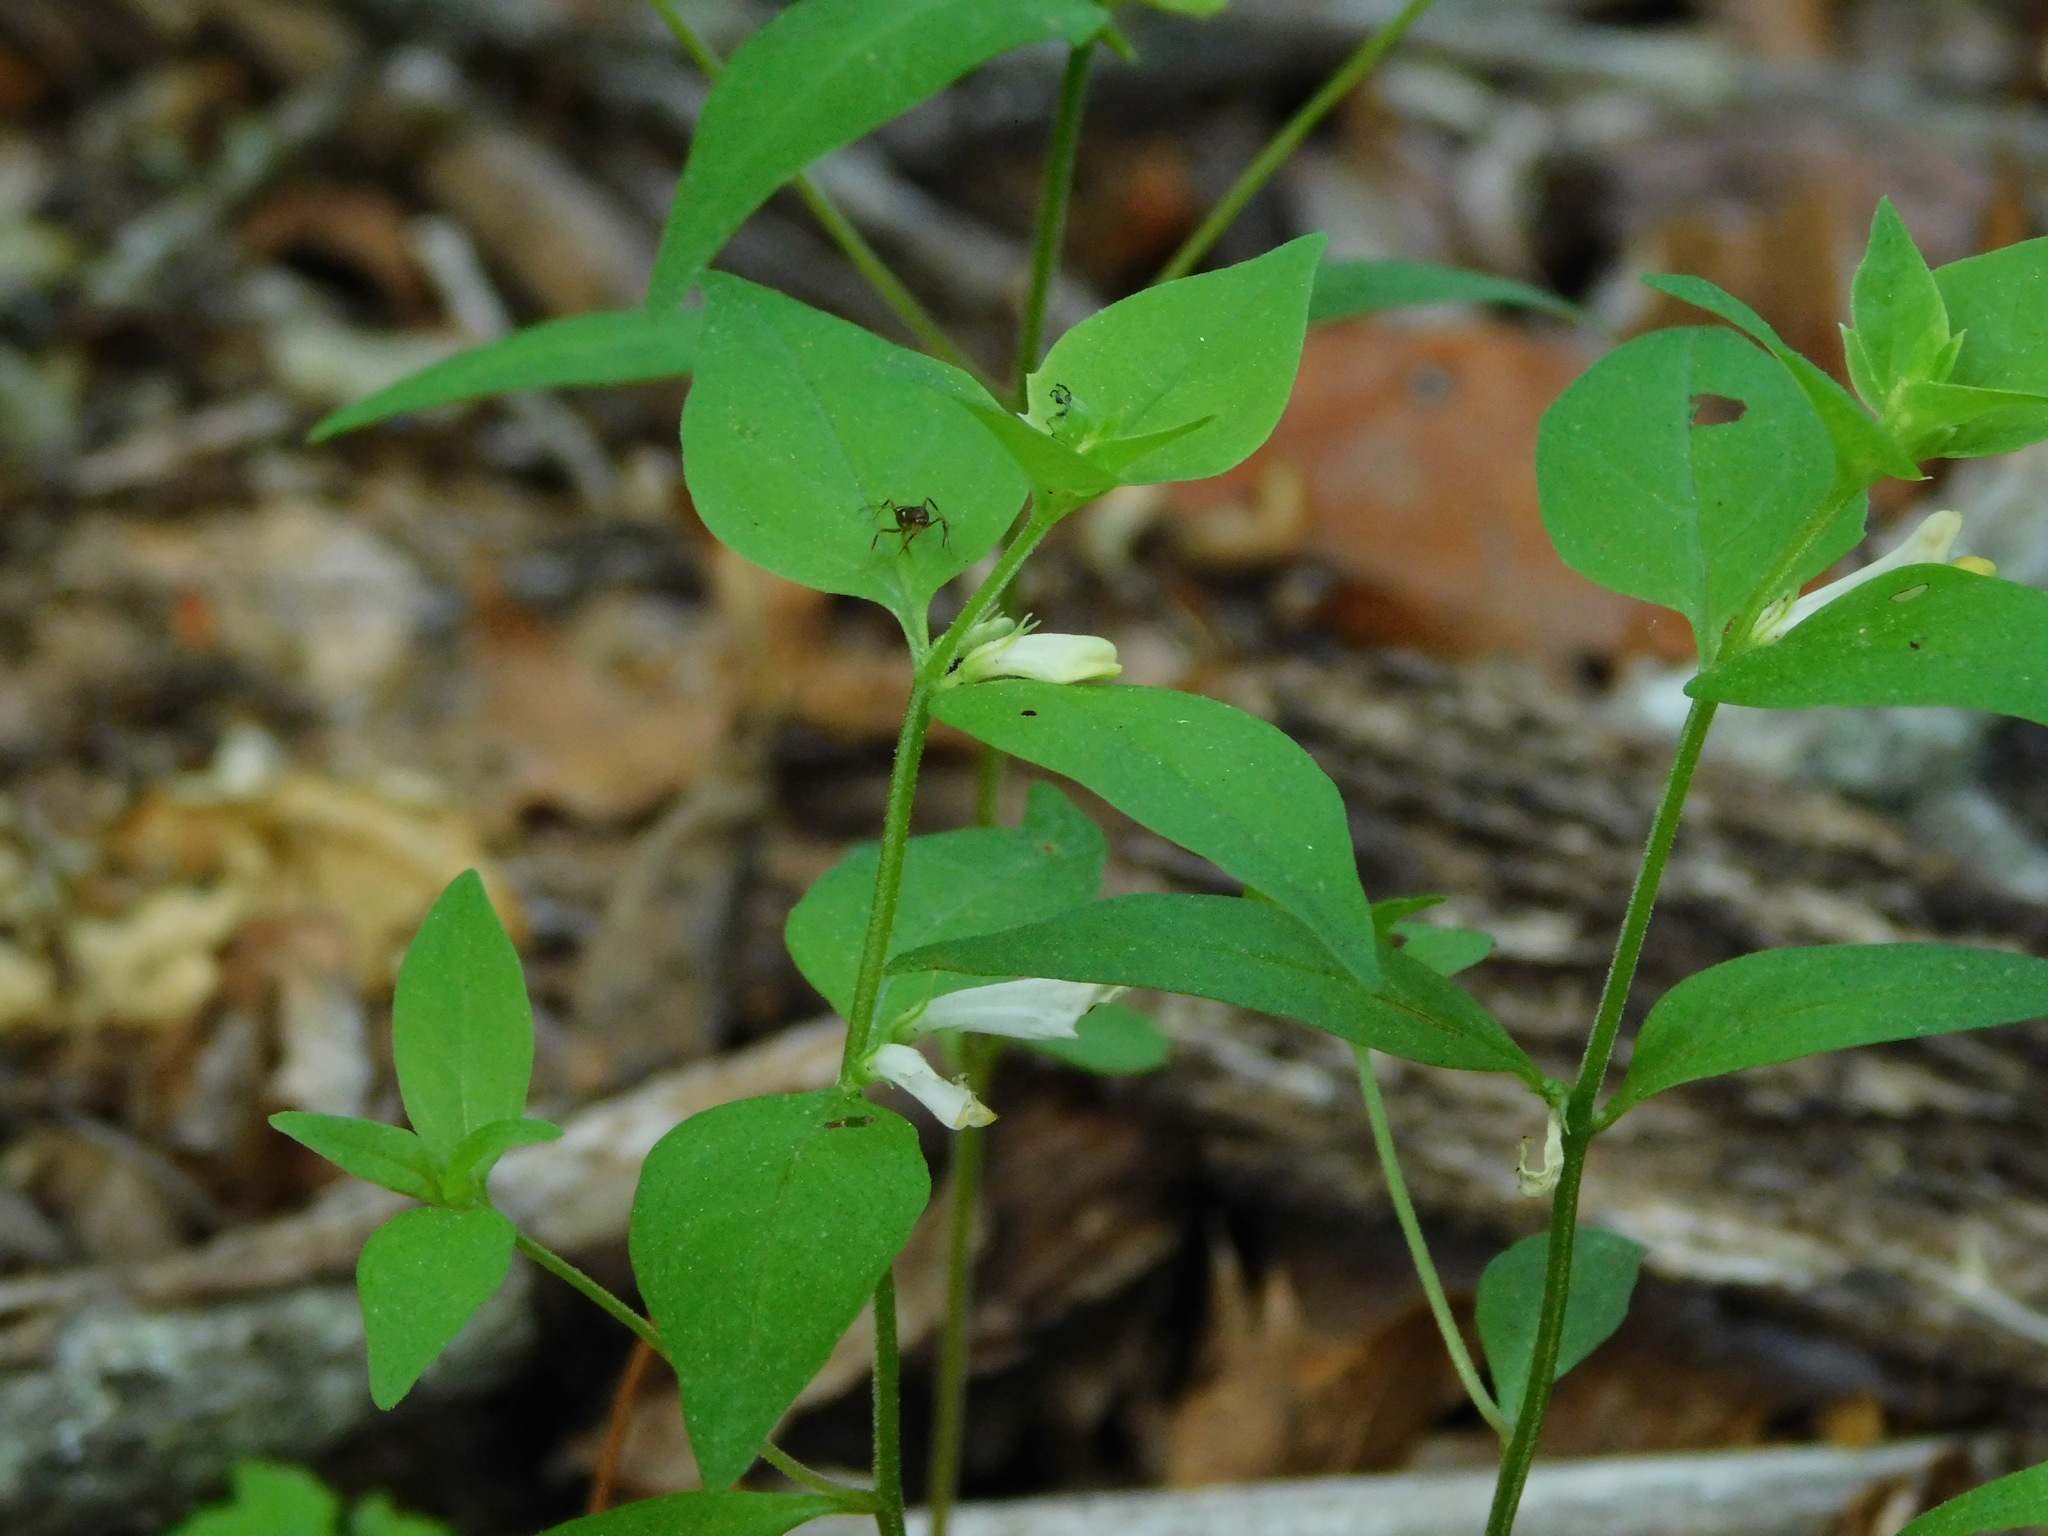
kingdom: Plantae
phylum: Tracheophyta
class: Magnoliopsida
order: Lamiales
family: Orobanchaceae
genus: Melampyrum
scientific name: Melampyrum lineare
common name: American cow-wheat
